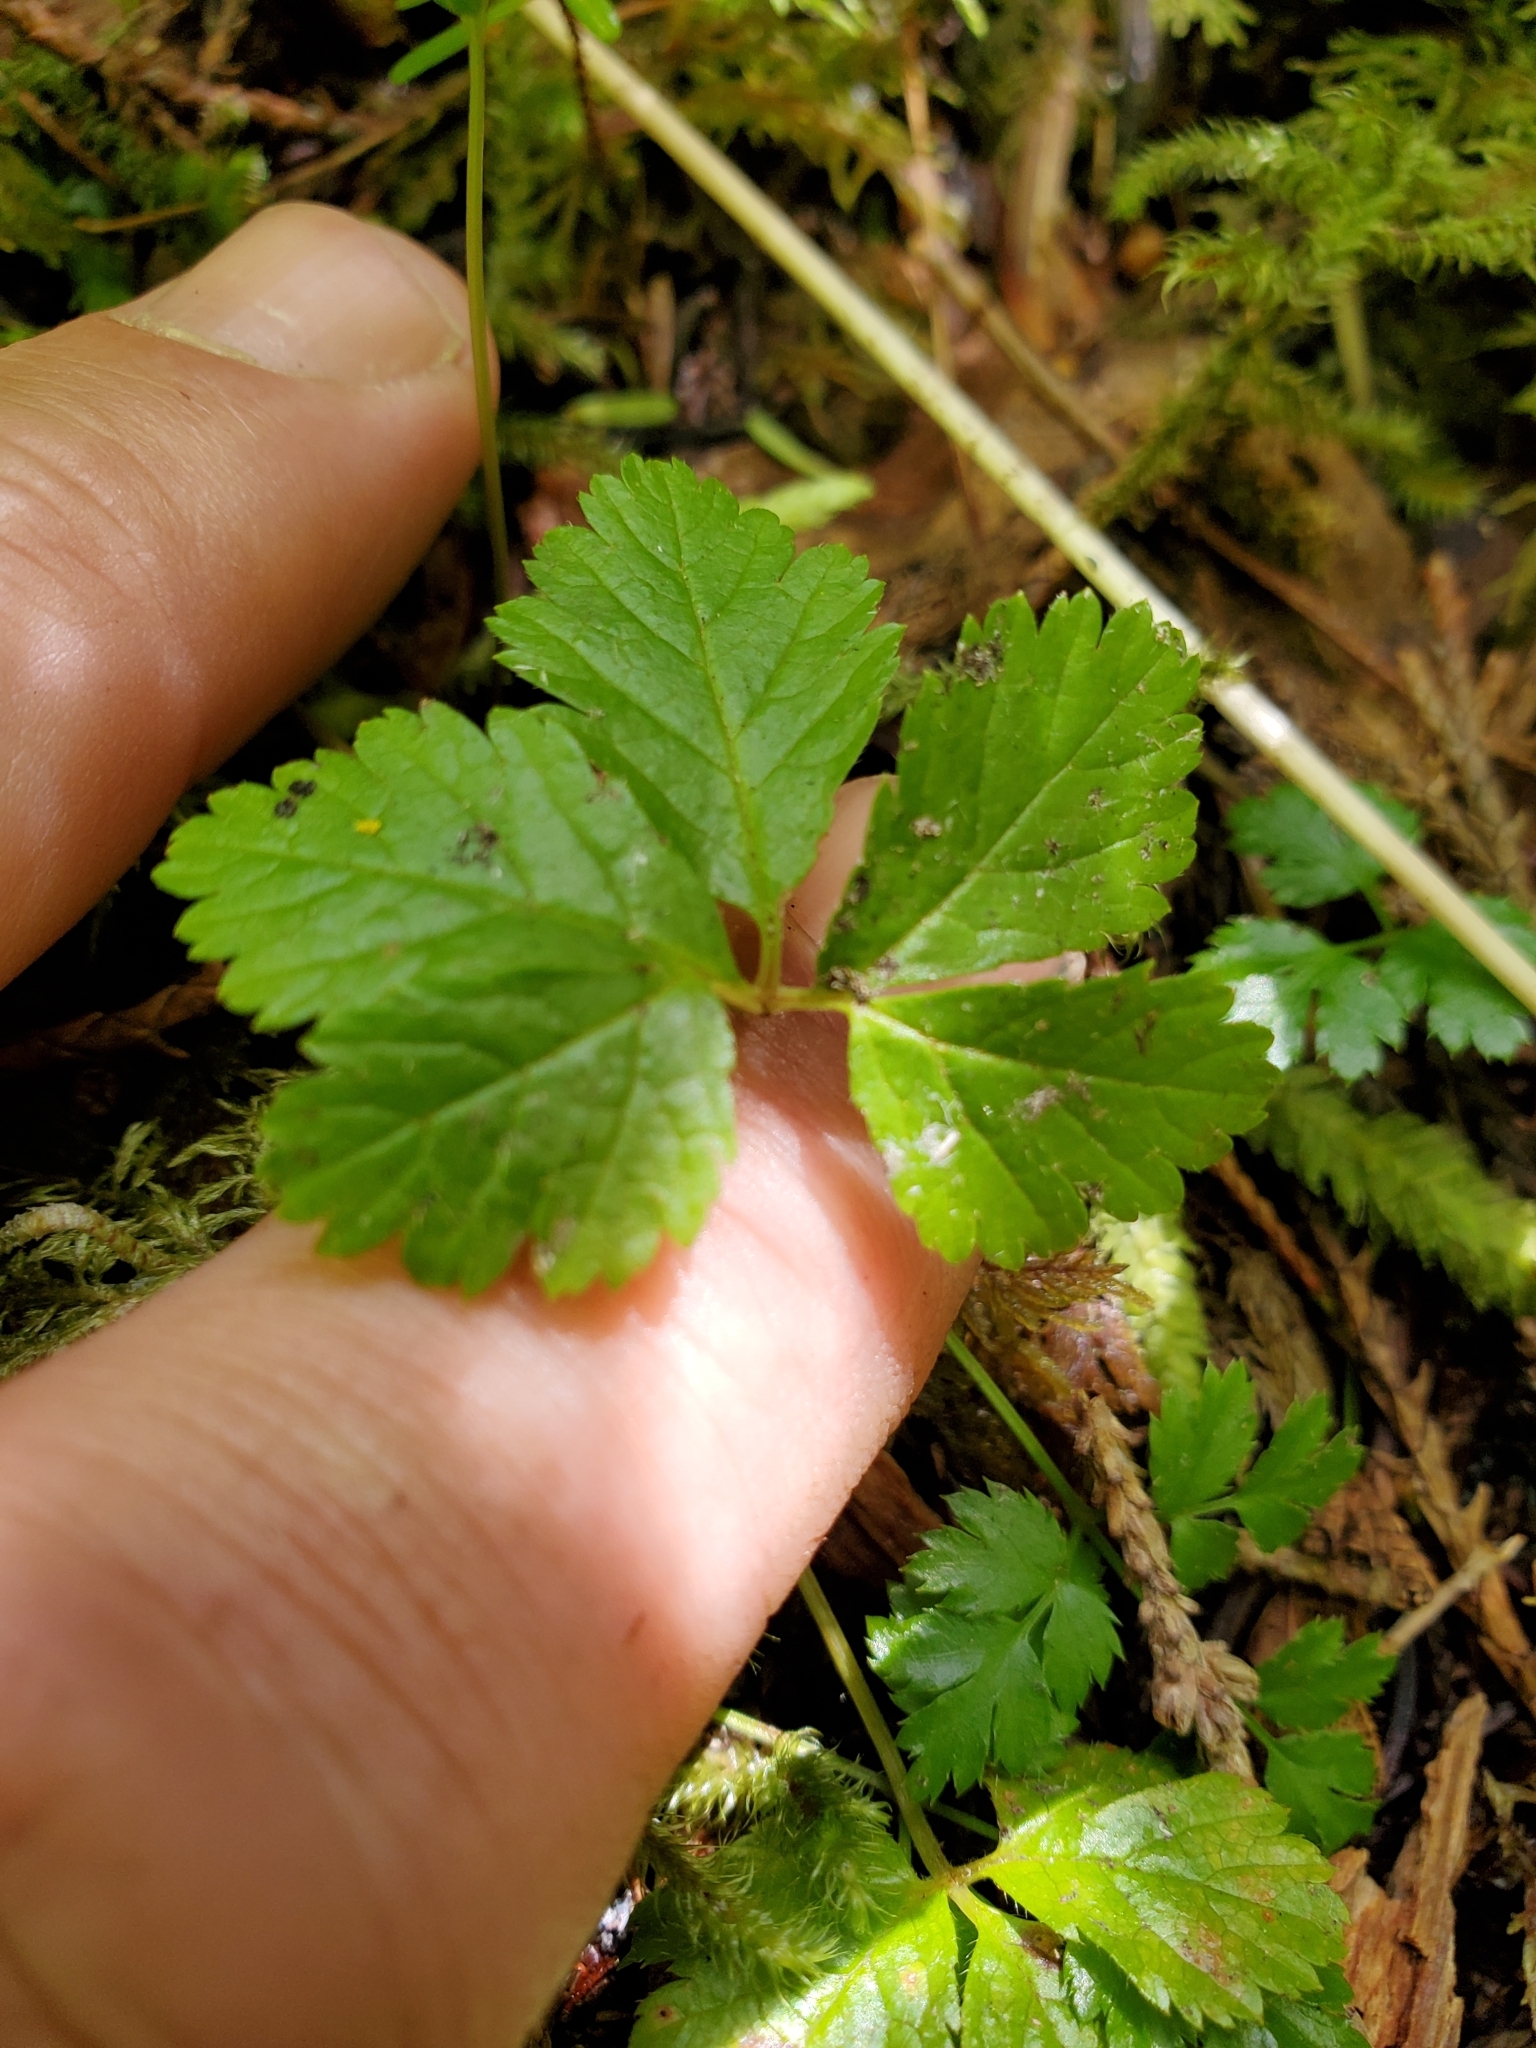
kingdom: Plantae
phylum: Tracheophyta
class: Magnoliopsida
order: Rosales
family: Rosaceae
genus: Rubus
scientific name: Rubus pedatus
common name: Creeping raspberry
